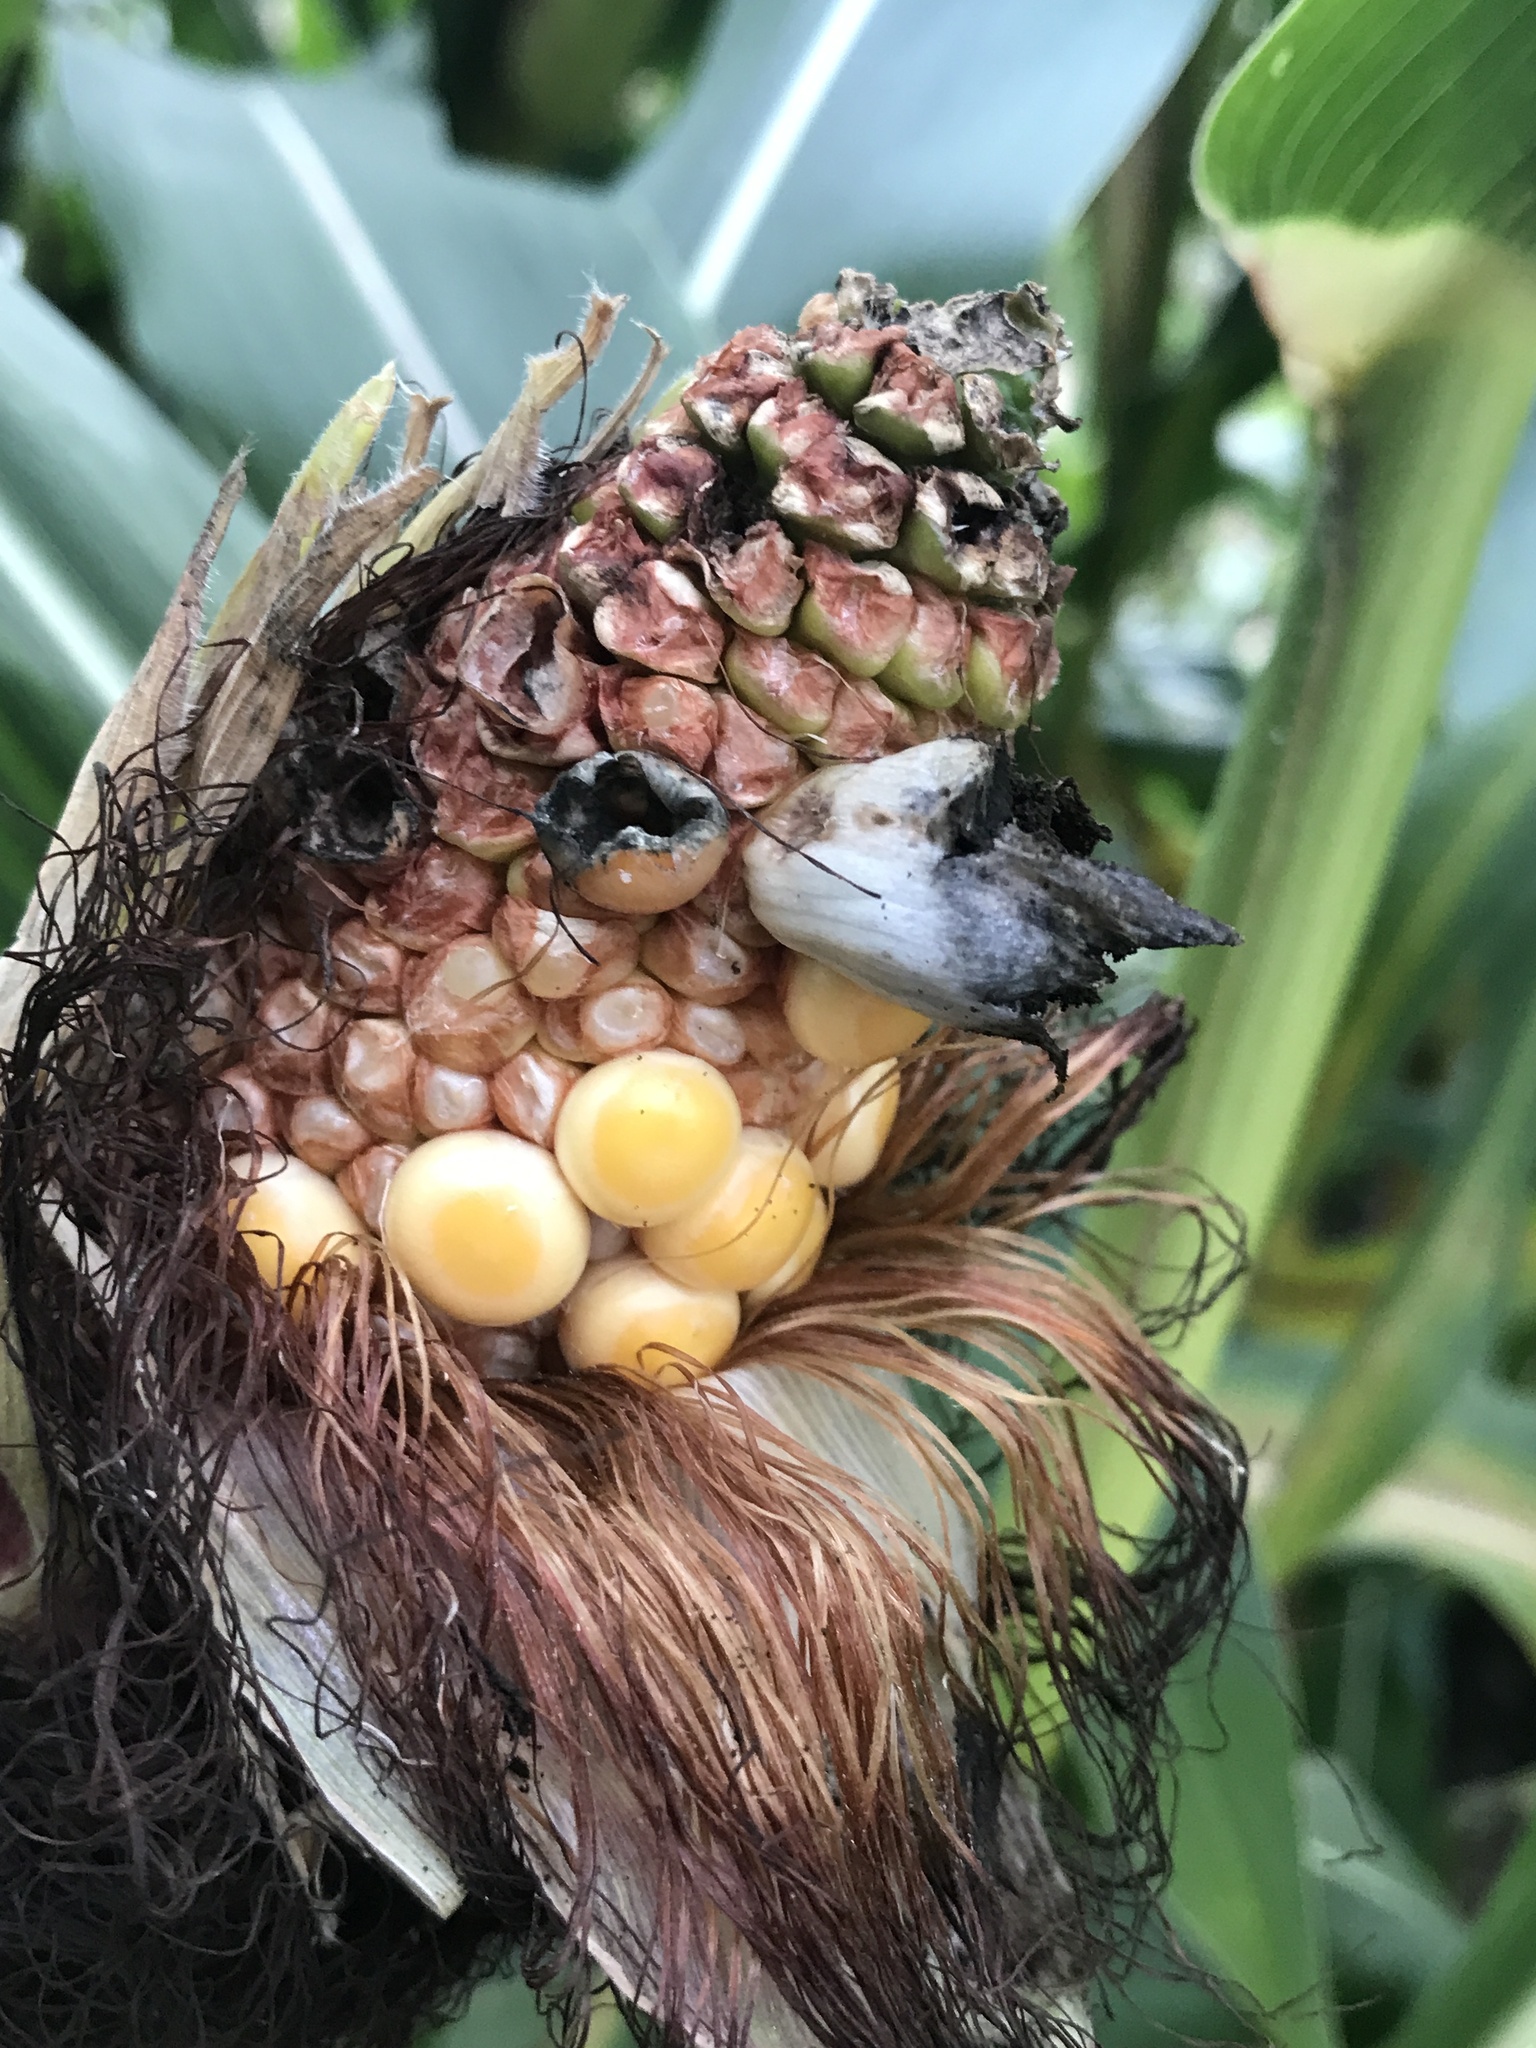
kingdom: Fungi
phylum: Basidiomycota
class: Ustilaginomycetes
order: Ustilaginales
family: Ustilaginaceae
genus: Mycosarcoma
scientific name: Mycosarcoma maydis
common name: Corn smut
